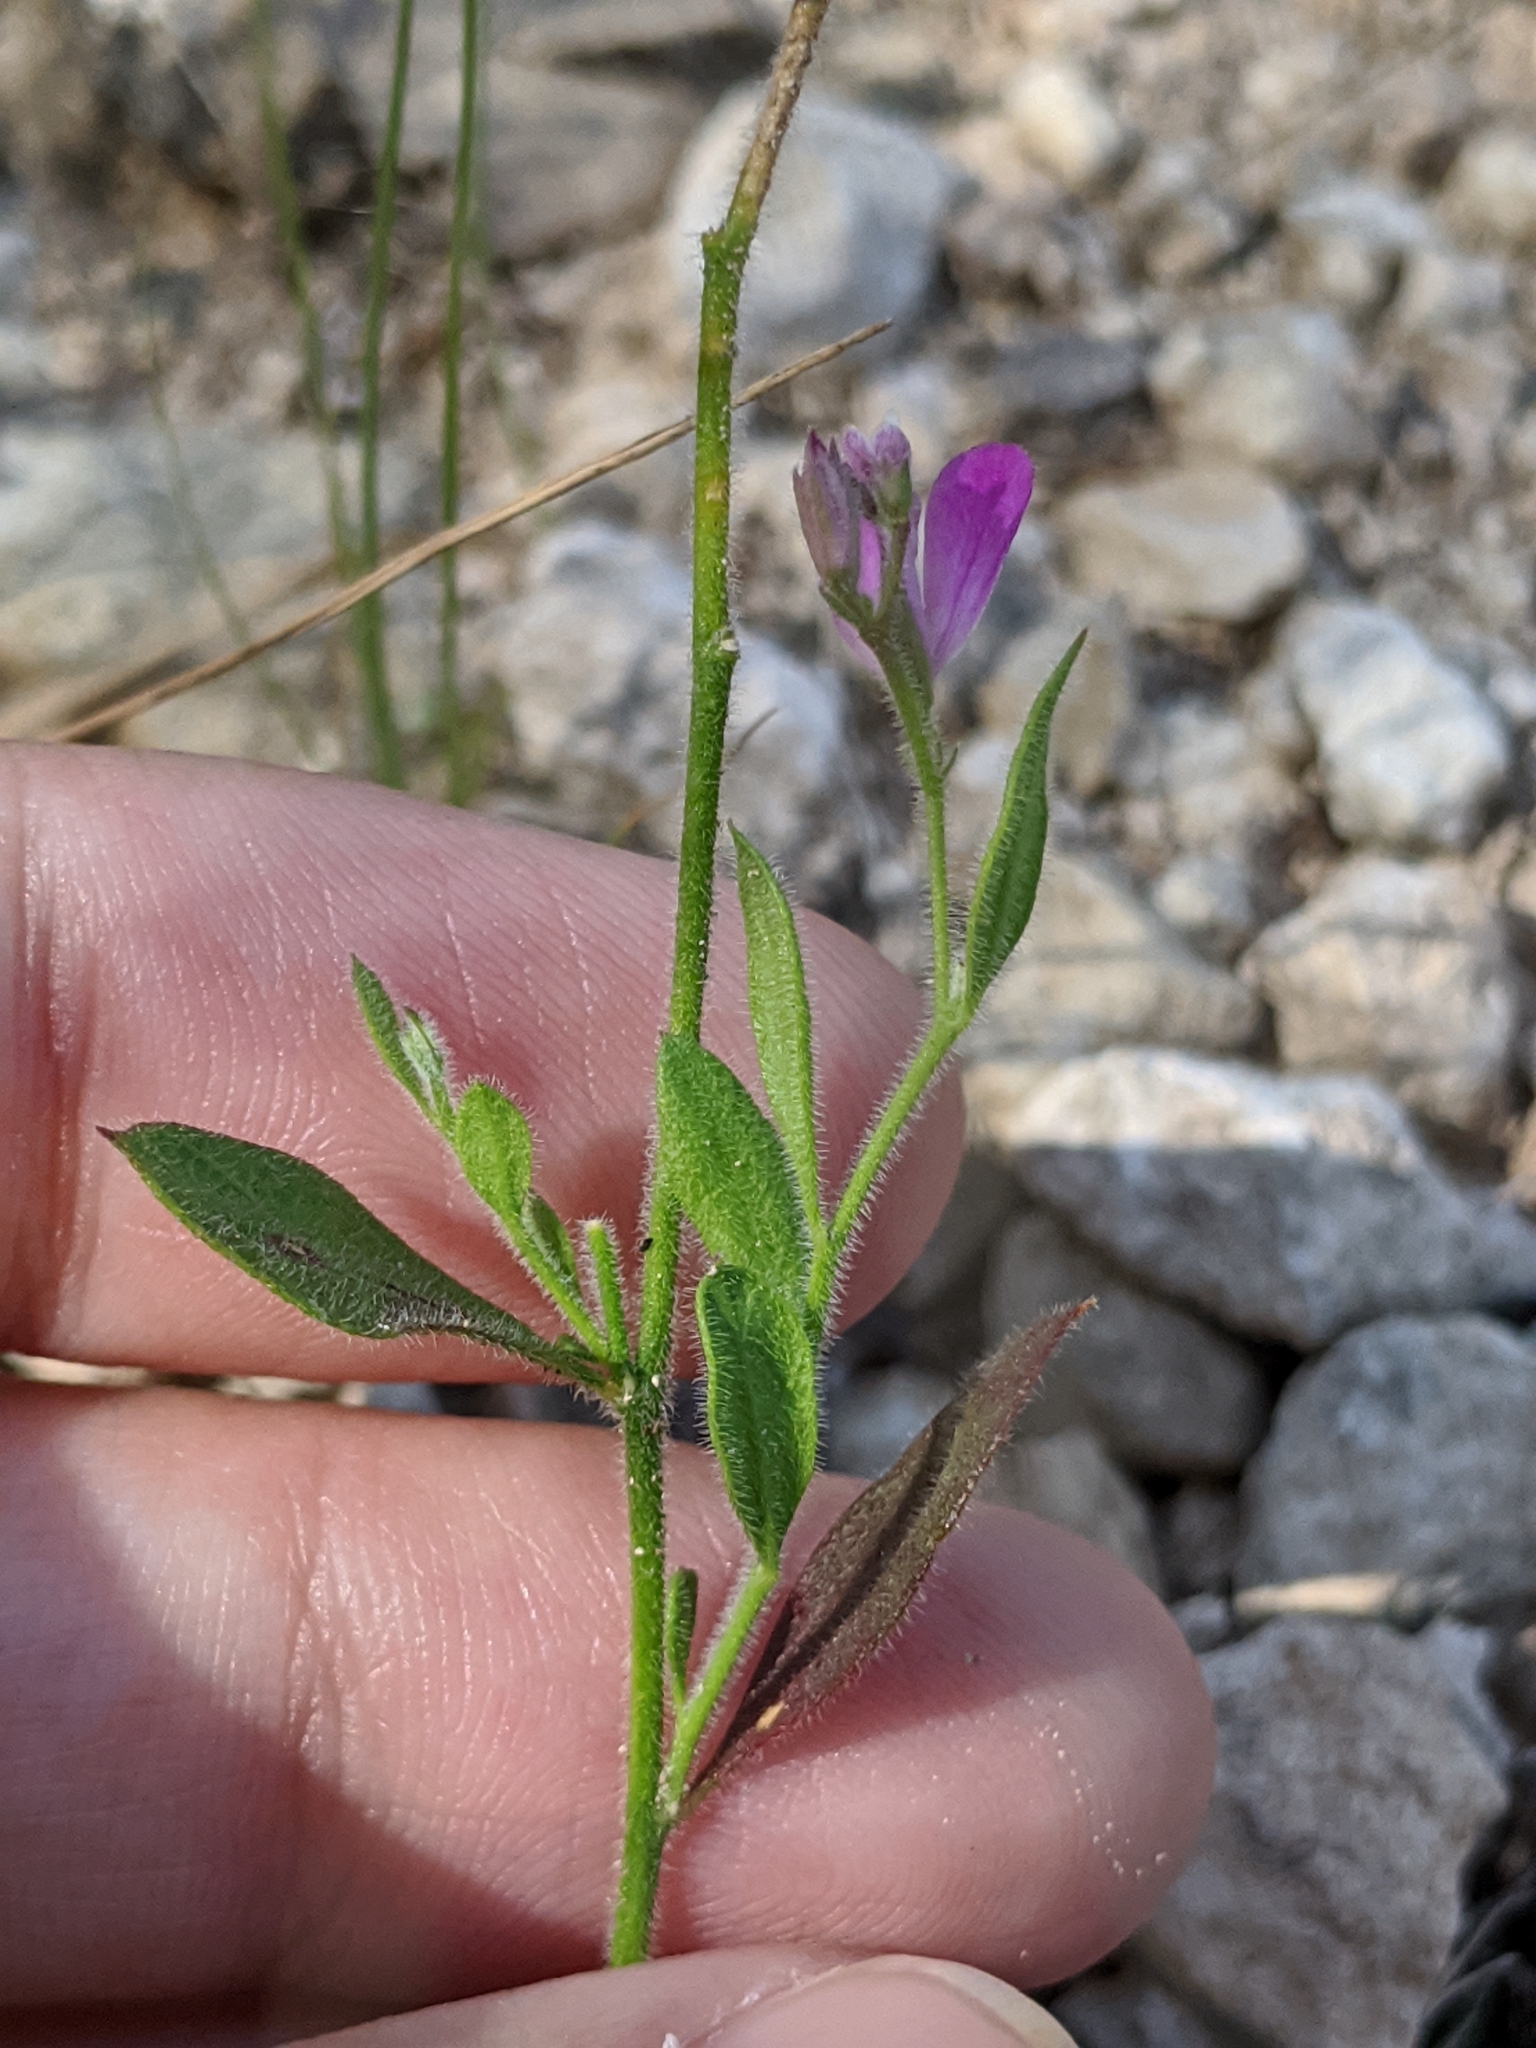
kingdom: Plantae
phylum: Tracheophyta
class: Magnoliopsida
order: Fabales
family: Polygalaceae
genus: Rhinotropis
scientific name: Rhinotropis lindheimeri
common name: Shrubby milkwort
